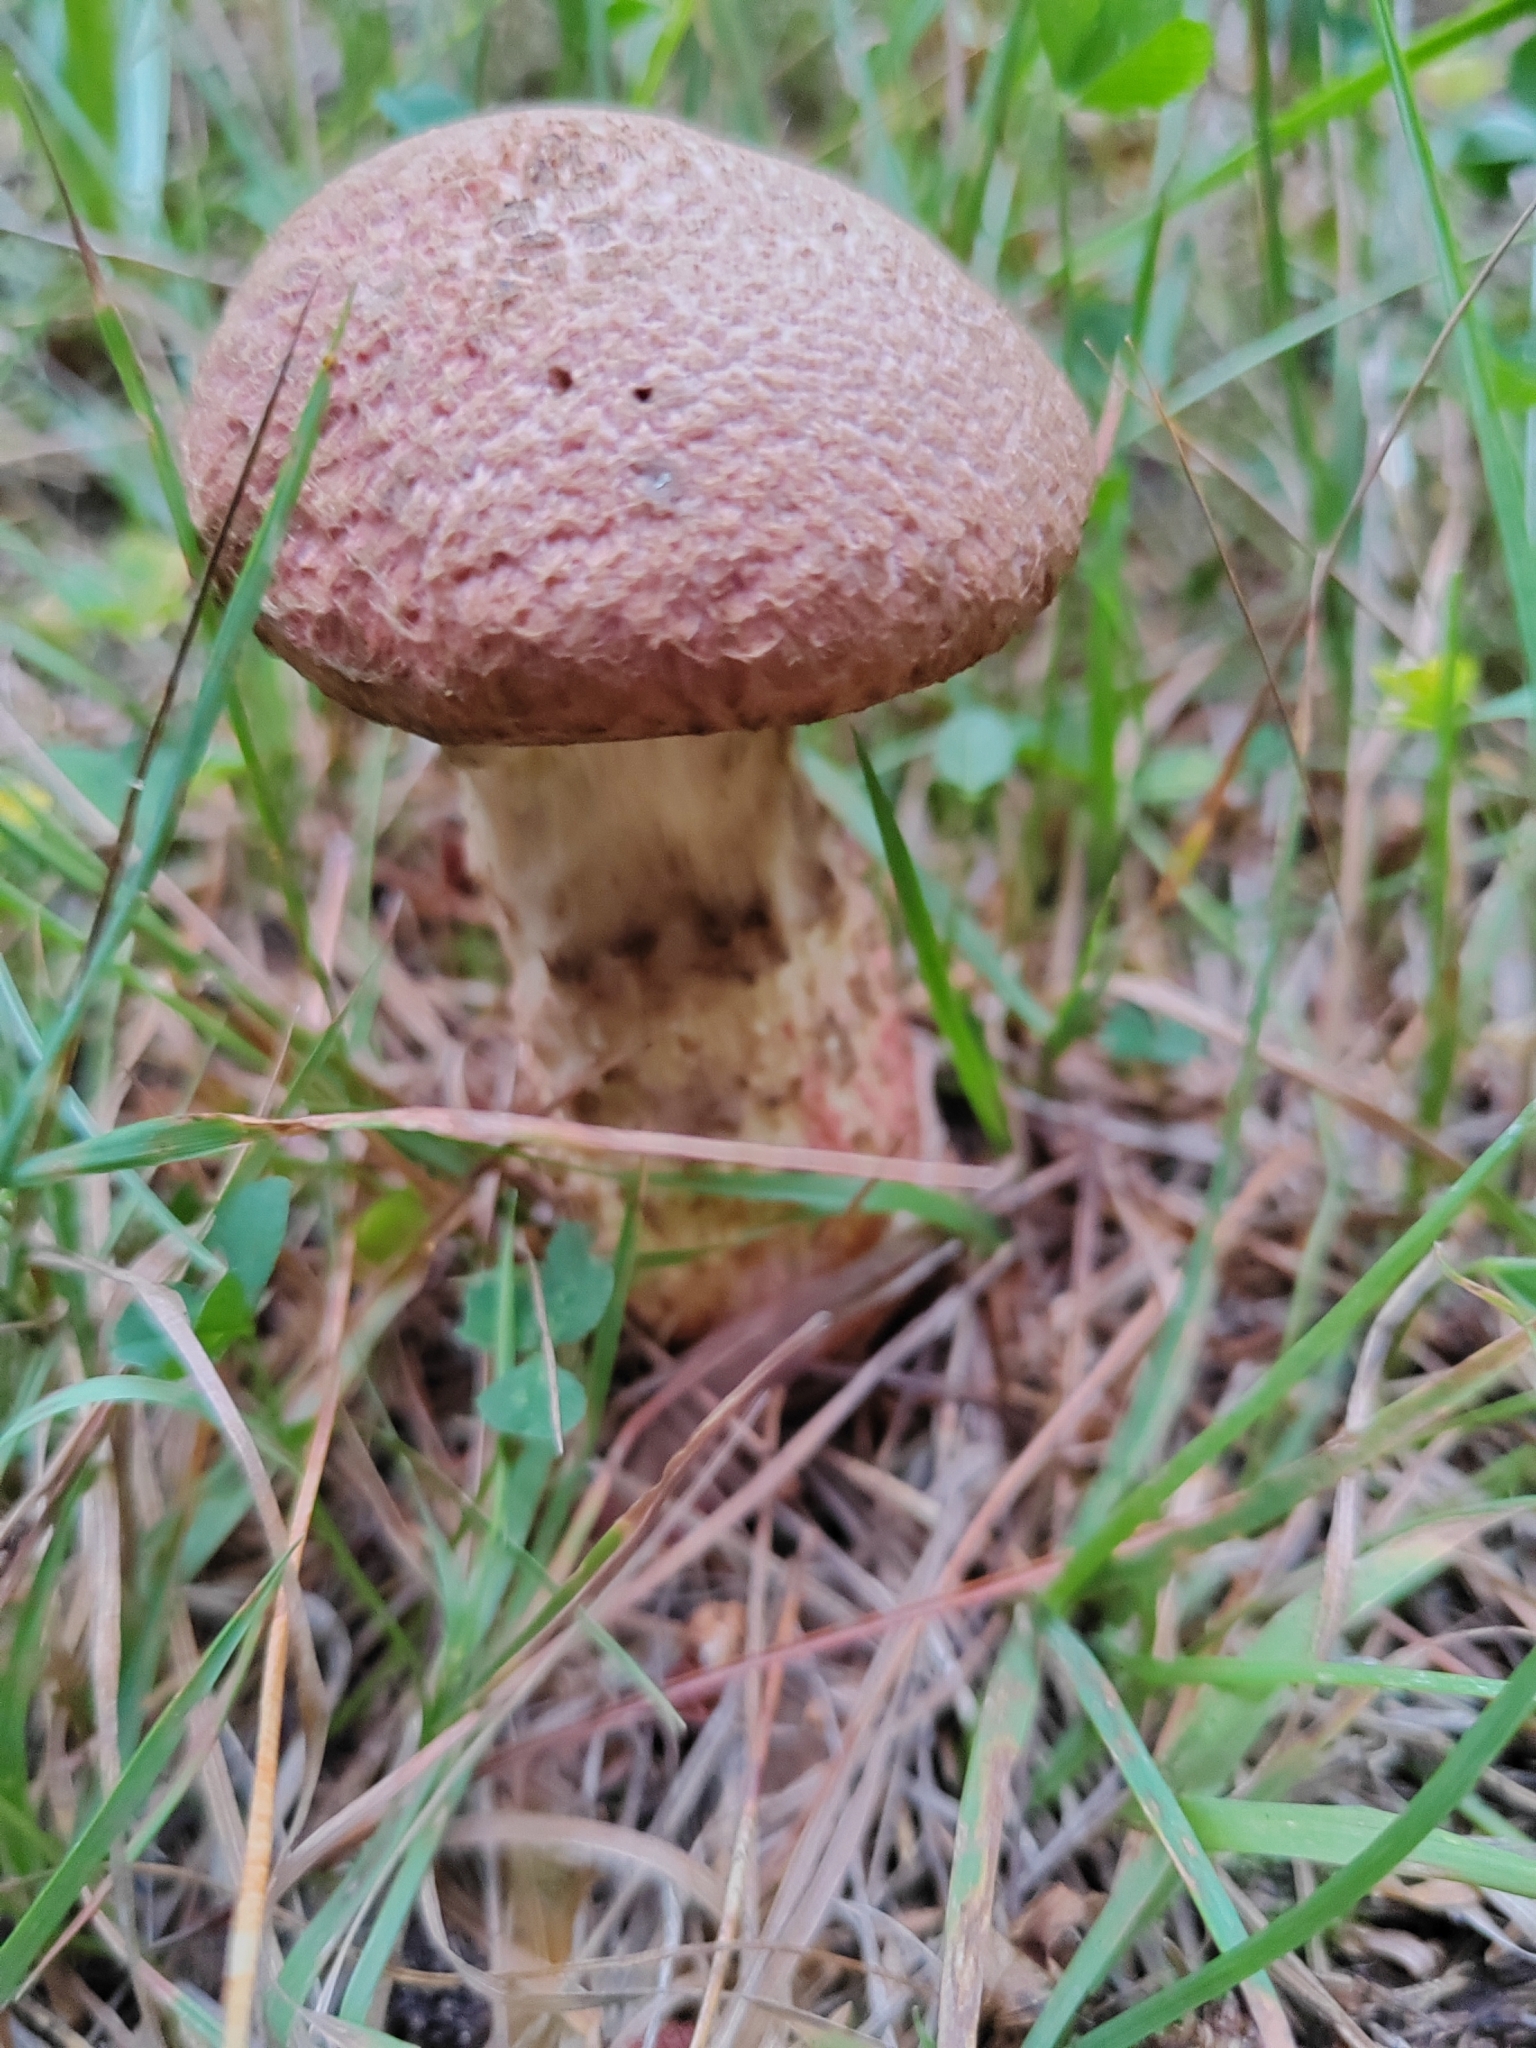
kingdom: Fungi
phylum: Basidiomycota
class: Agaricomycetes
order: Boletales
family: Suillaceae
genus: Suillus
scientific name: Suillus spraguei
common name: Painted suillus
